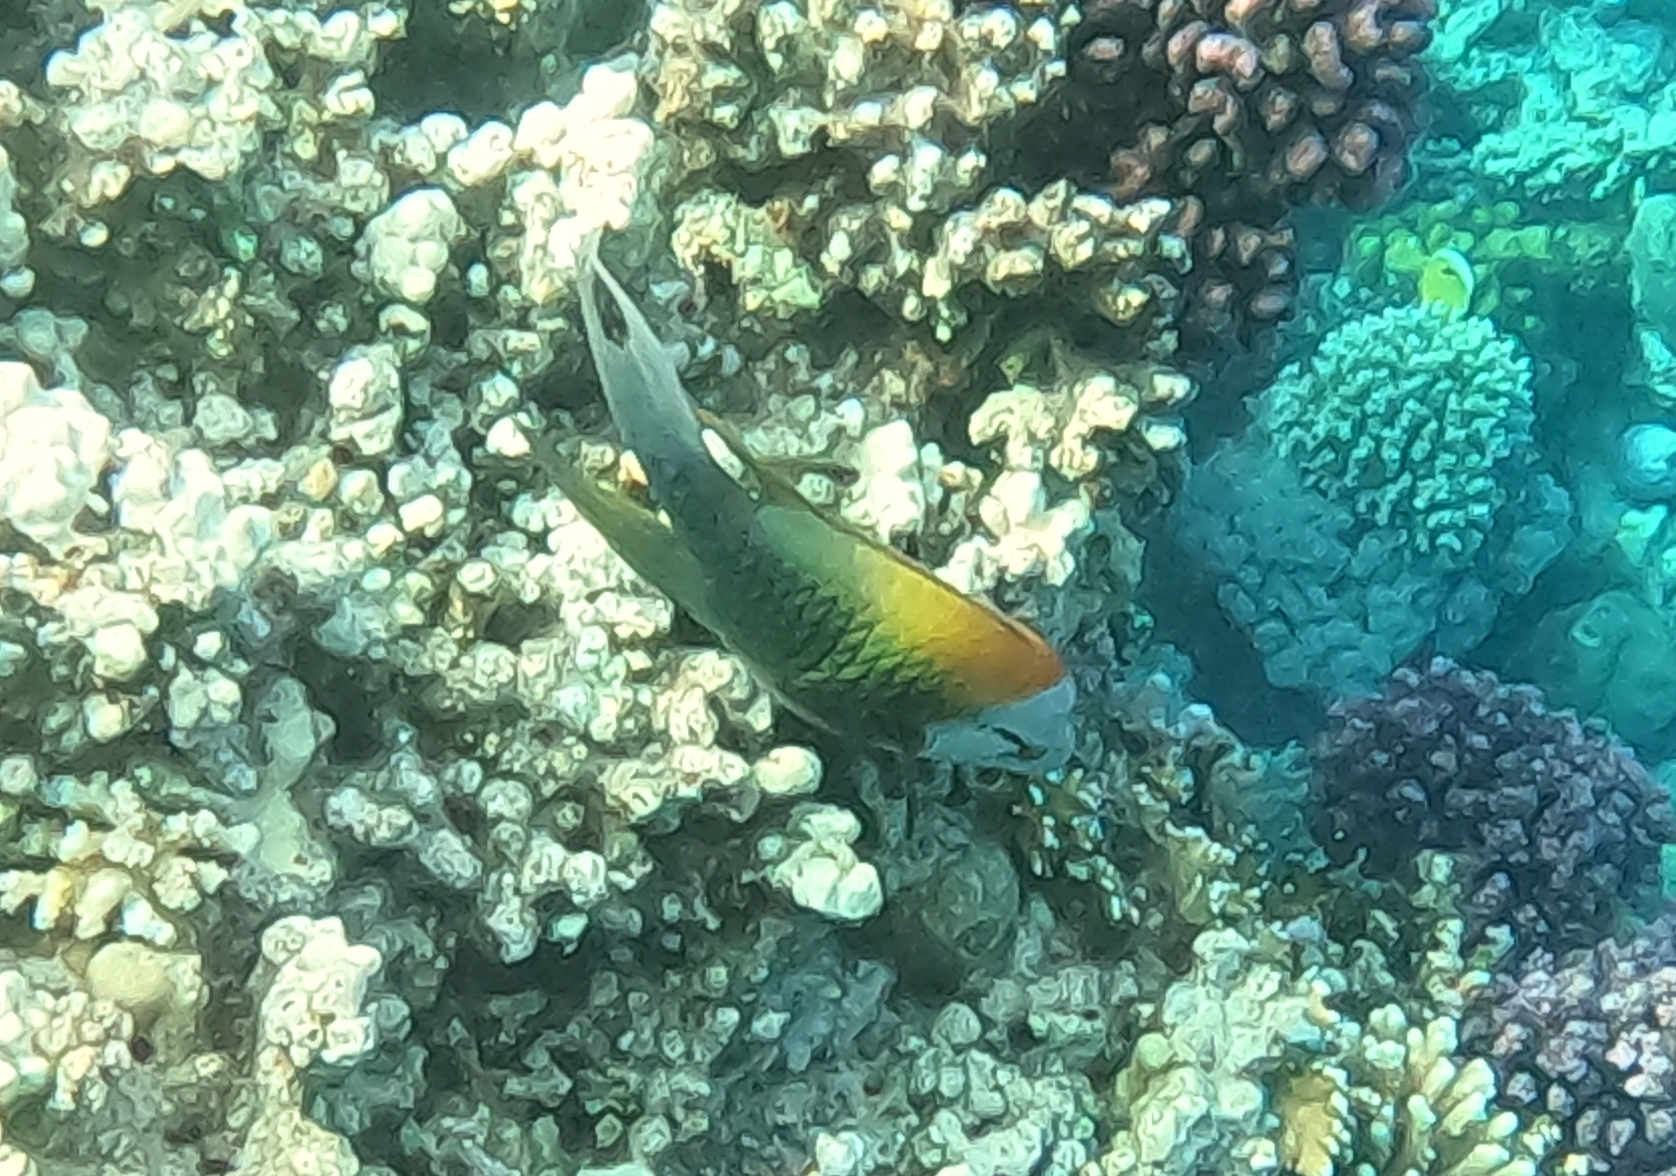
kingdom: Animalia
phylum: Chordata
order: Perciformes
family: Labridae
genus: Epibulus
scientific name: Epibulus insidiator
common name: Slingjaw wrasse
